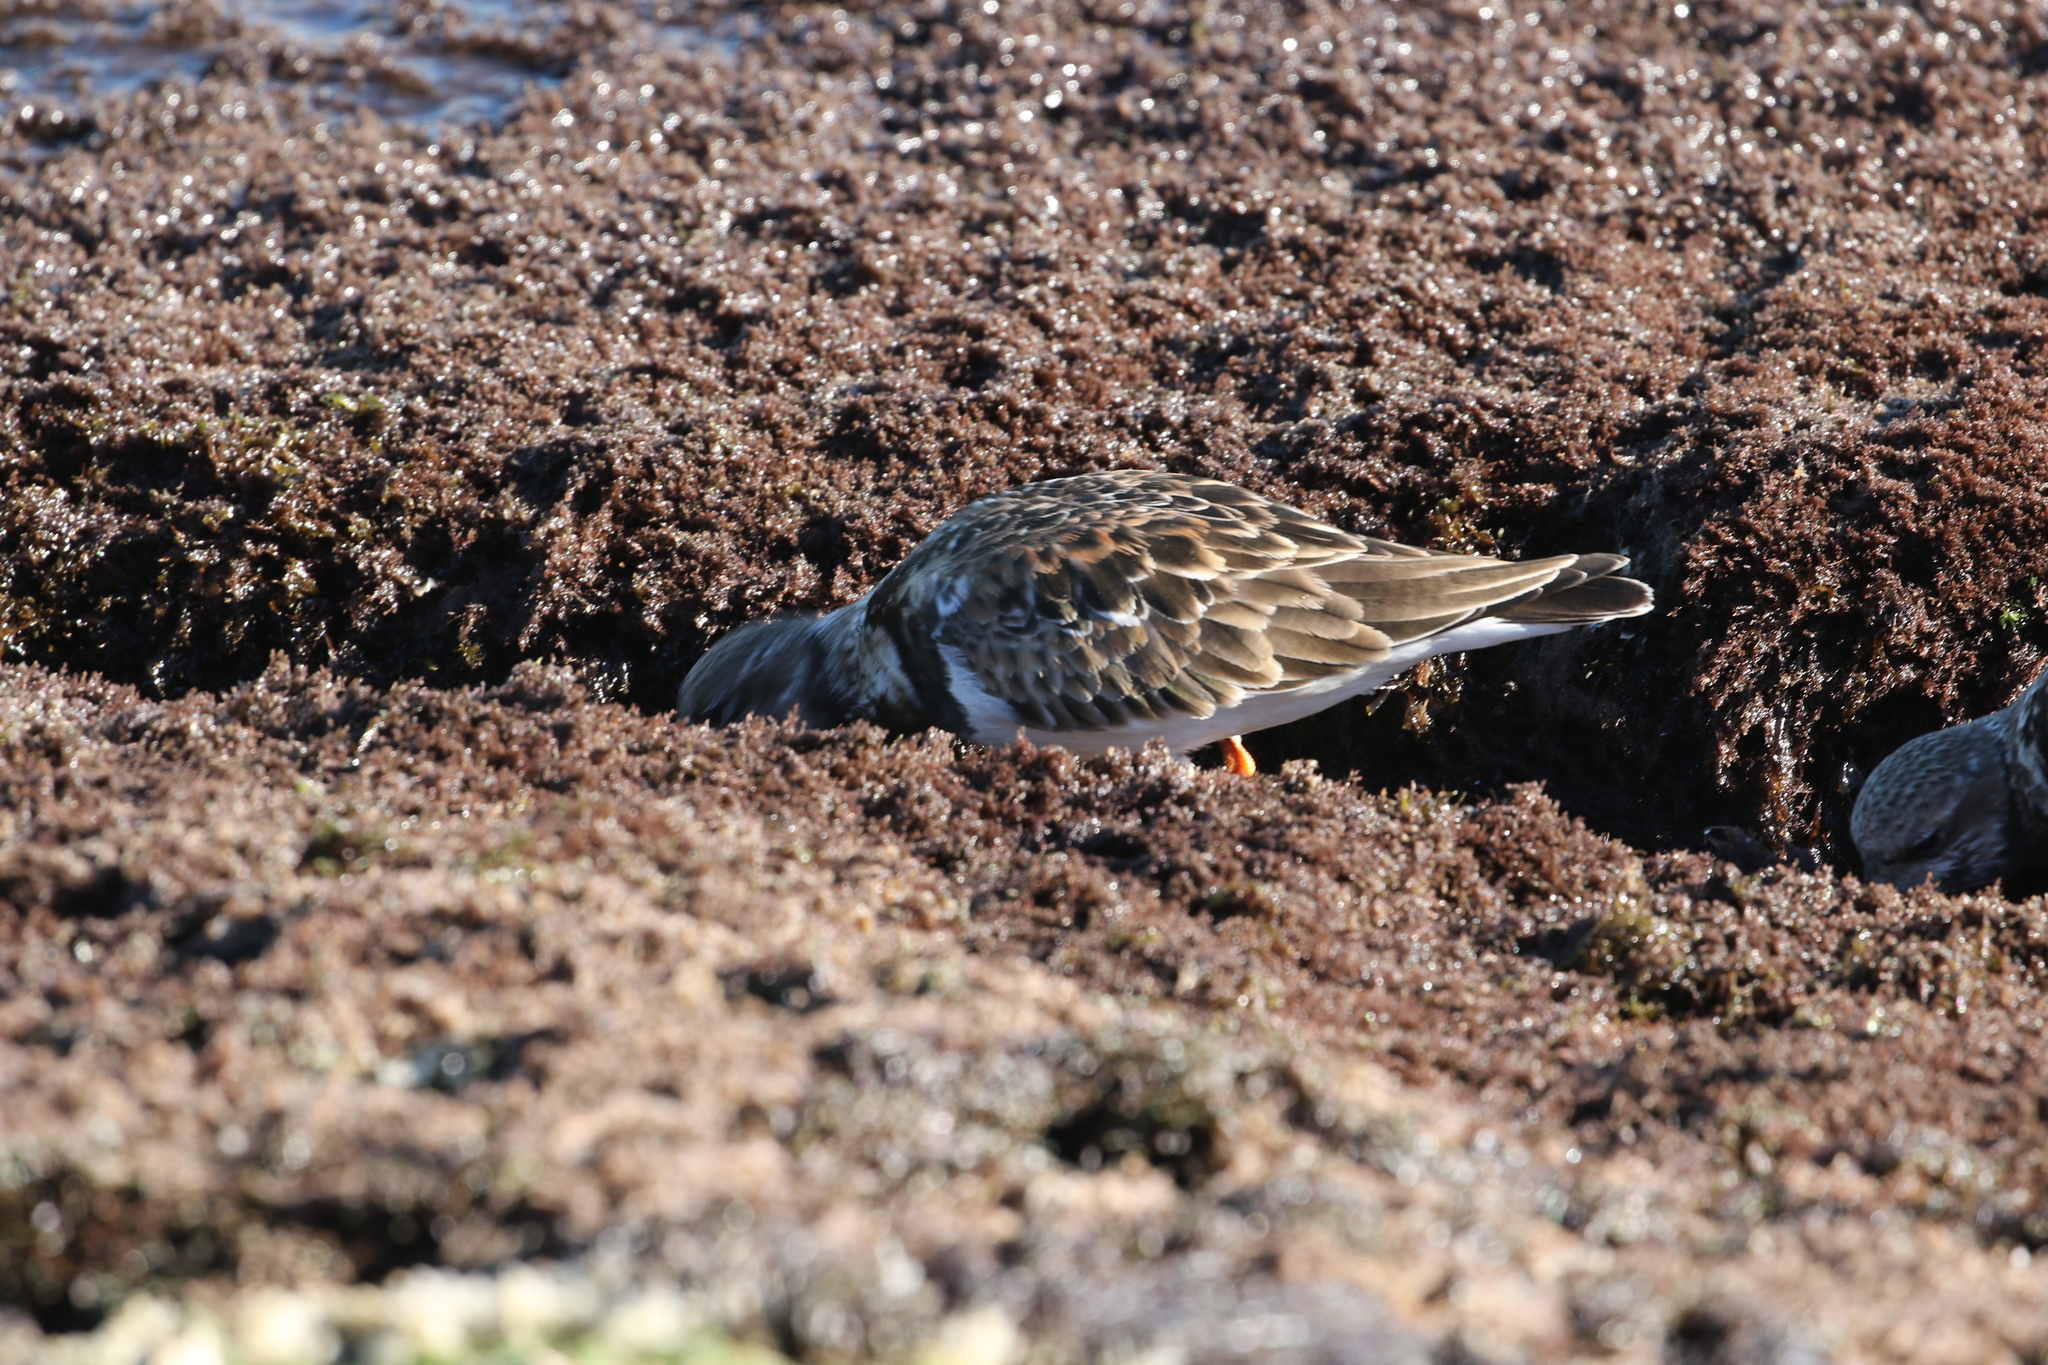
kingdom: Animalia
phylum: Chordata
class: Aves
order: Charadriiformes
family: Scolopacidae
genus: Arenaria
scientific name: Arenaria interpres
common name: Ruddy turnstone
